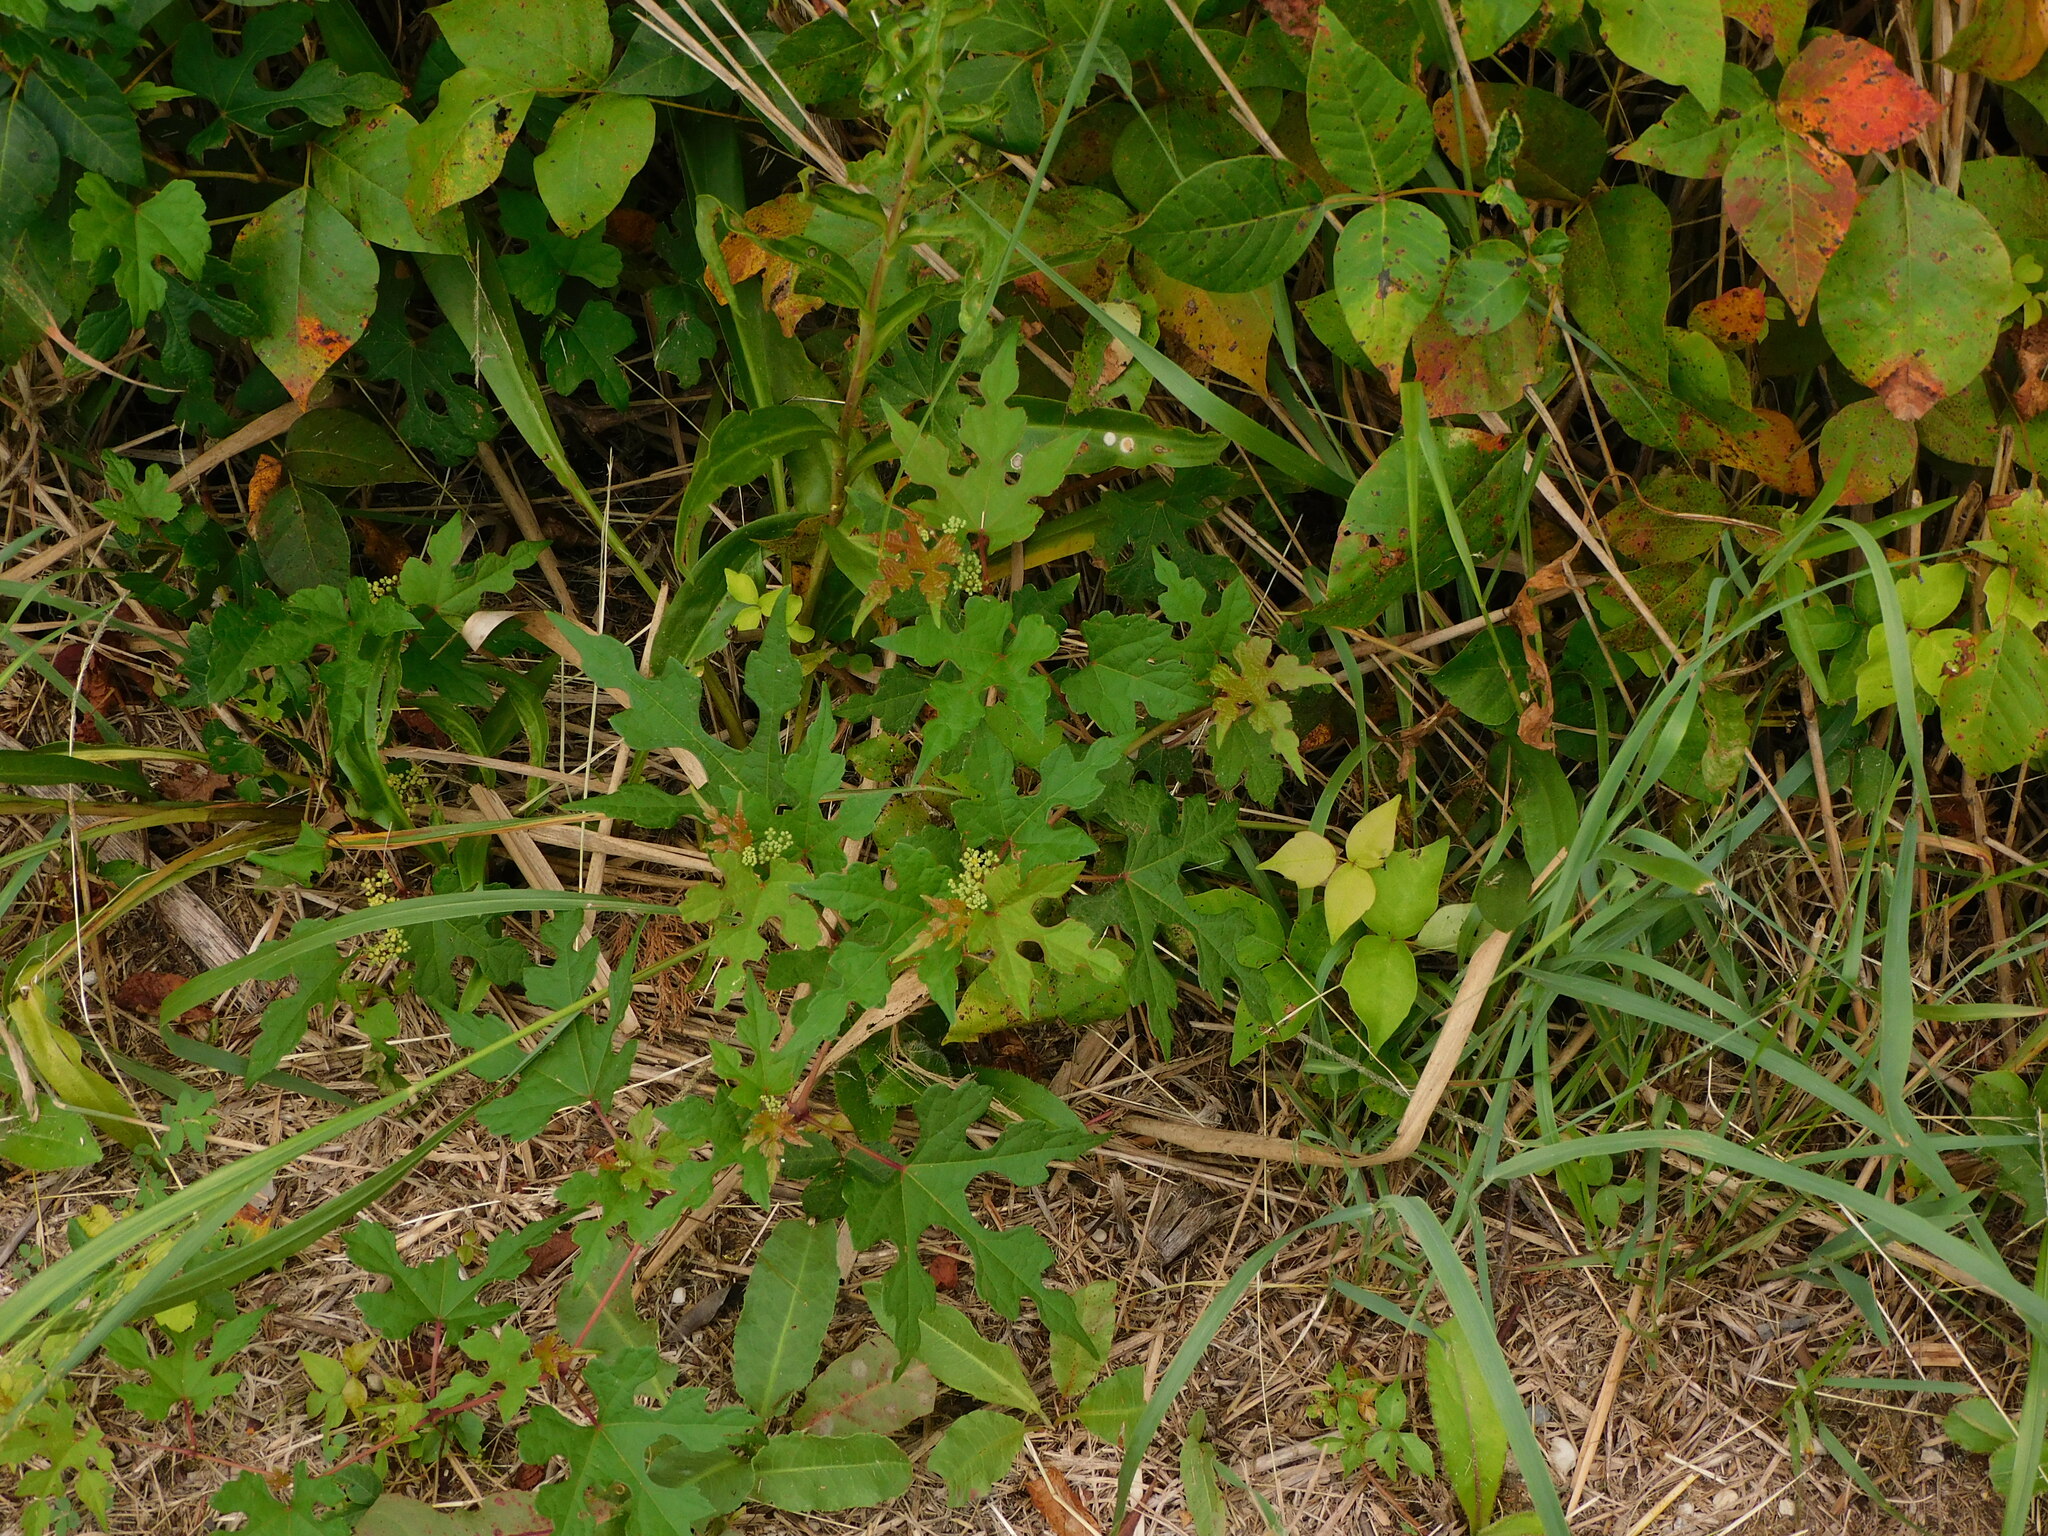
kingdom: Plantae
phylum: Tracheophyta
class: Magnoliopsida
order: Vitales
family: Vitaceae
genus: Ampelopsis
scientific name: Ampelopsis glandulosa
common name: Amur peppervine
